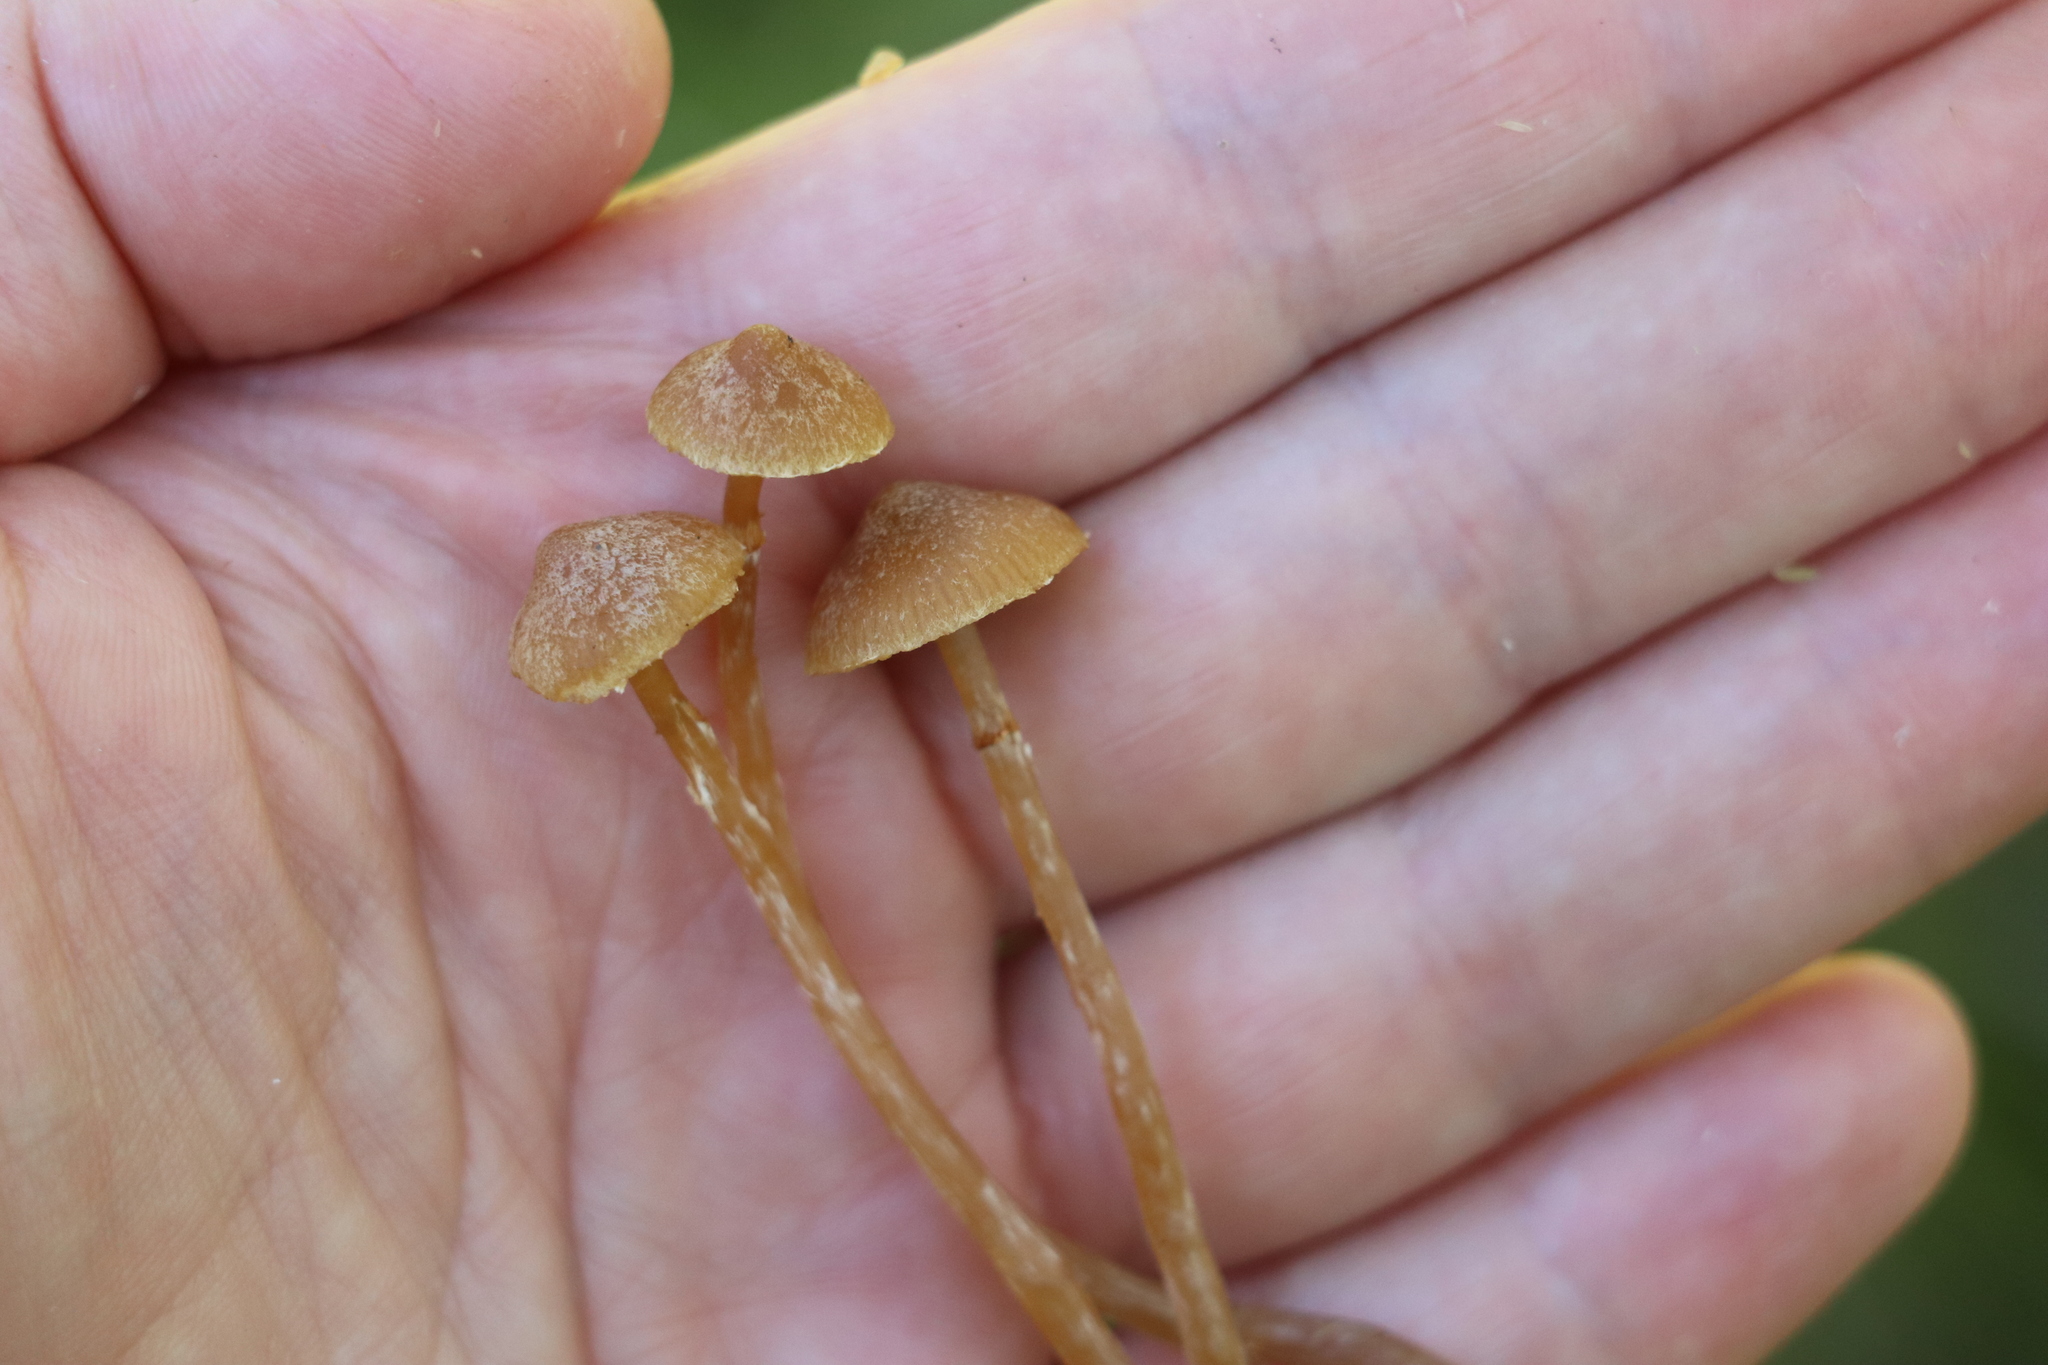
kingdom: Fungi
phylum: Basidiomycota
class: Agaricomycetes
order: Agaricales
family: Hymenogastraceae
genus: Galerina
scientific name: Galerina paludosa
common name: Bog bell
